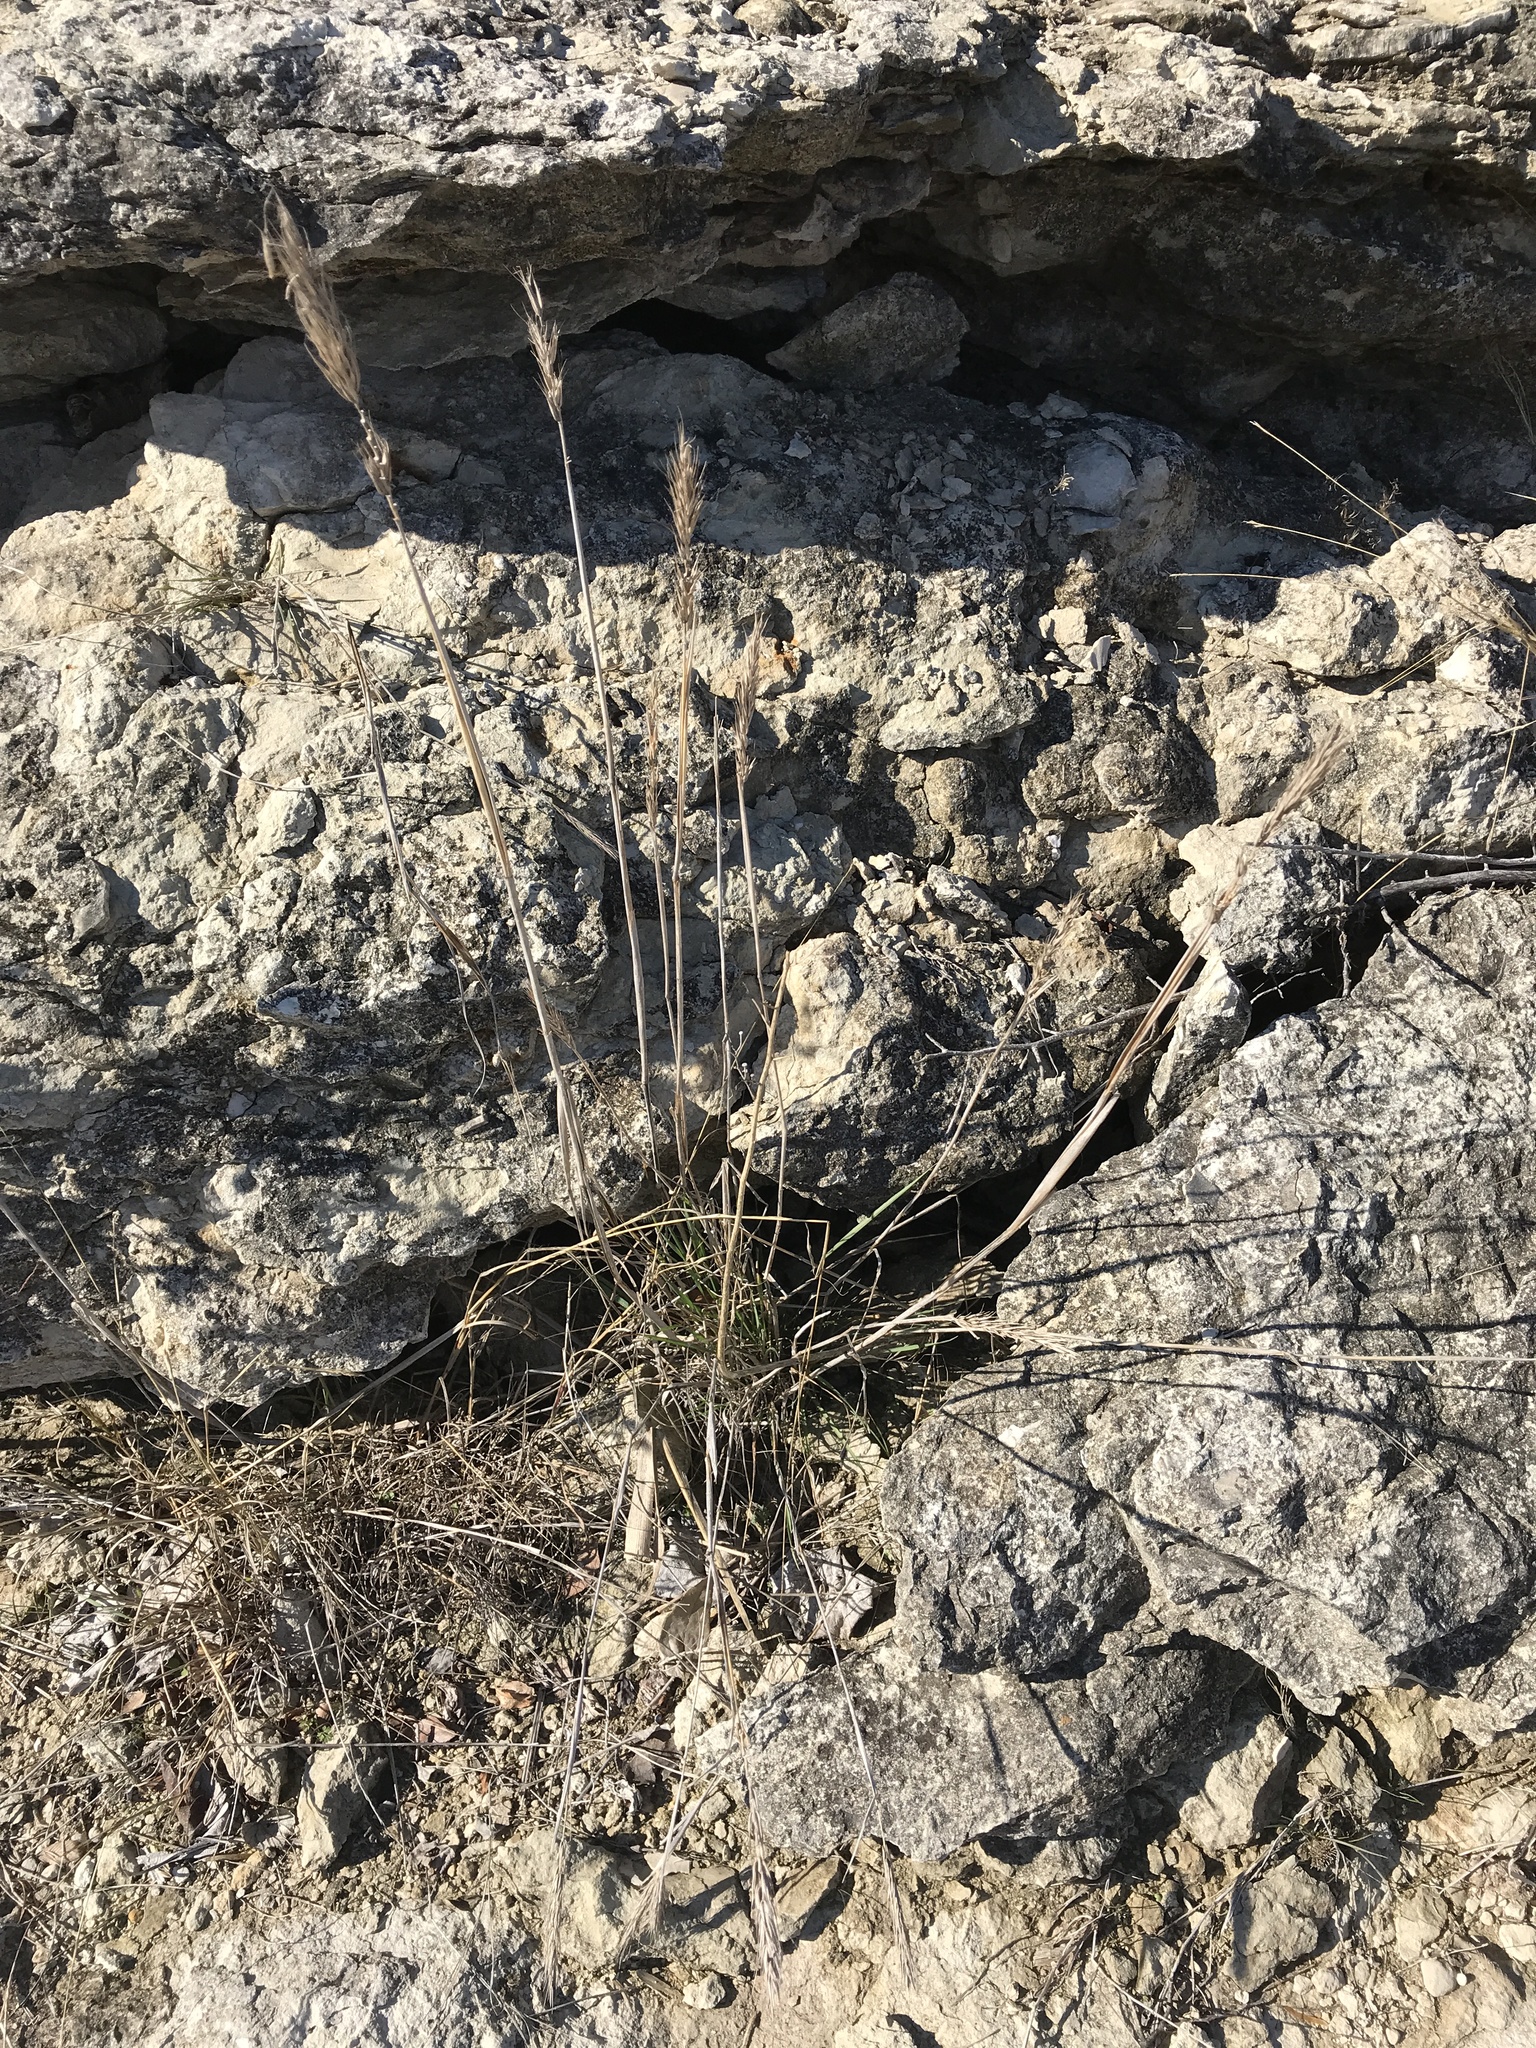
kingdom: Plantae
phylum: Tracheophyta
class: Liliopsida
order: Poales
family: Poaceae
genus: Elymus
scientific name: Elymus virginicus
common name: Common eastern wildrye
